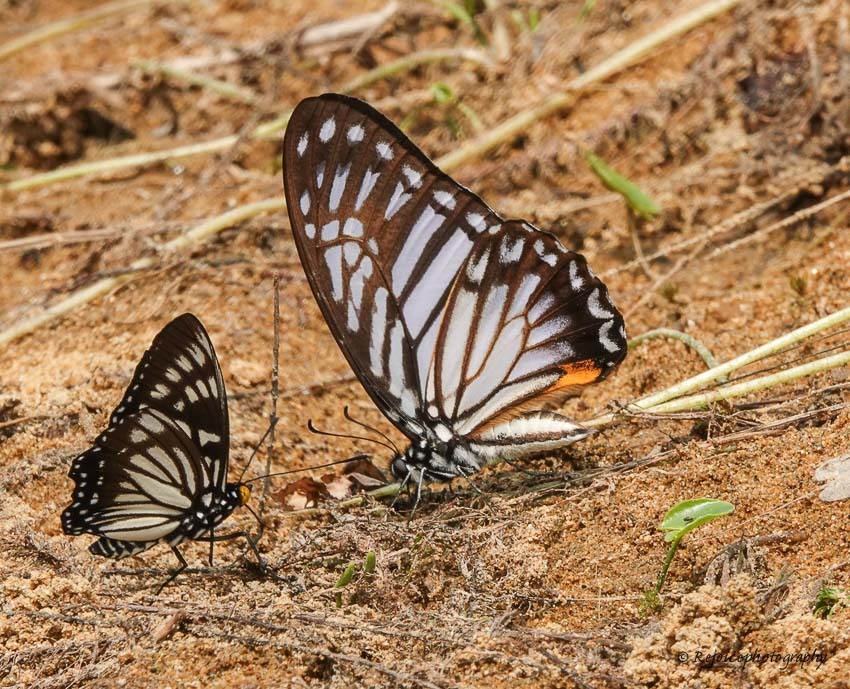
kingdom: Animalia
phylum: Arthropoda
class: Insecta
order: Lepidoptera
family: Papilionidae
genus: Graphium
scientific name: Graphium xenocles
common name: Great zebra
